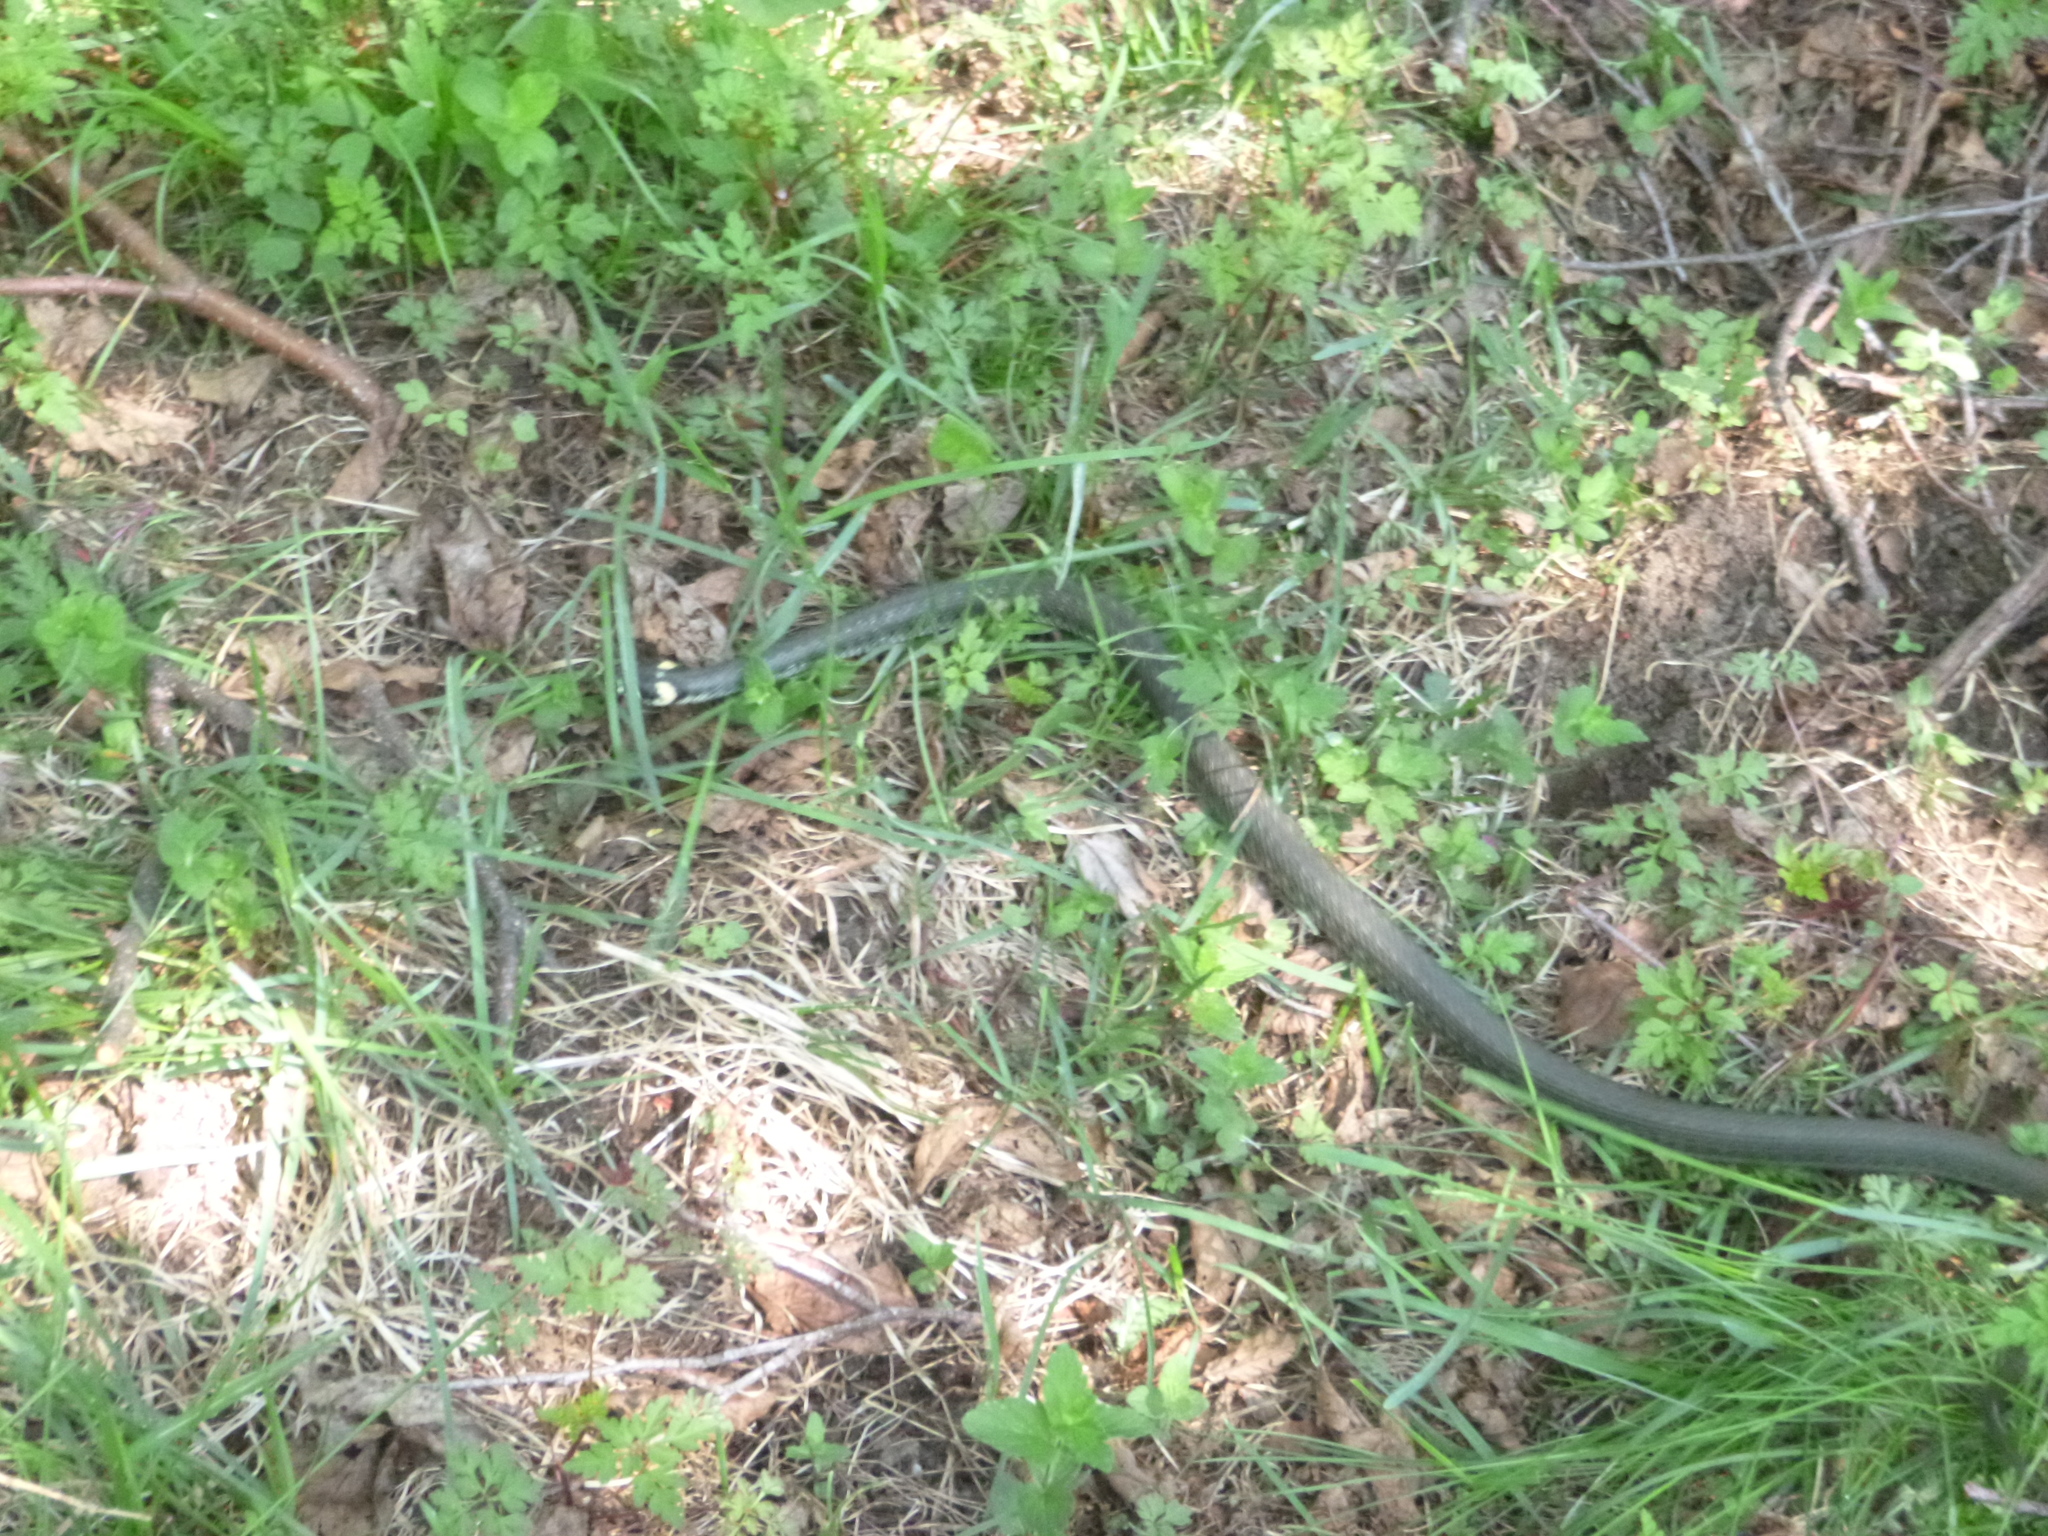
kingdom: Animalia
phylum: Chordata
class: Squamata
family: Colubridae
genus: Natrix
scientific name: Natrix natrix
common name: Grass snake
